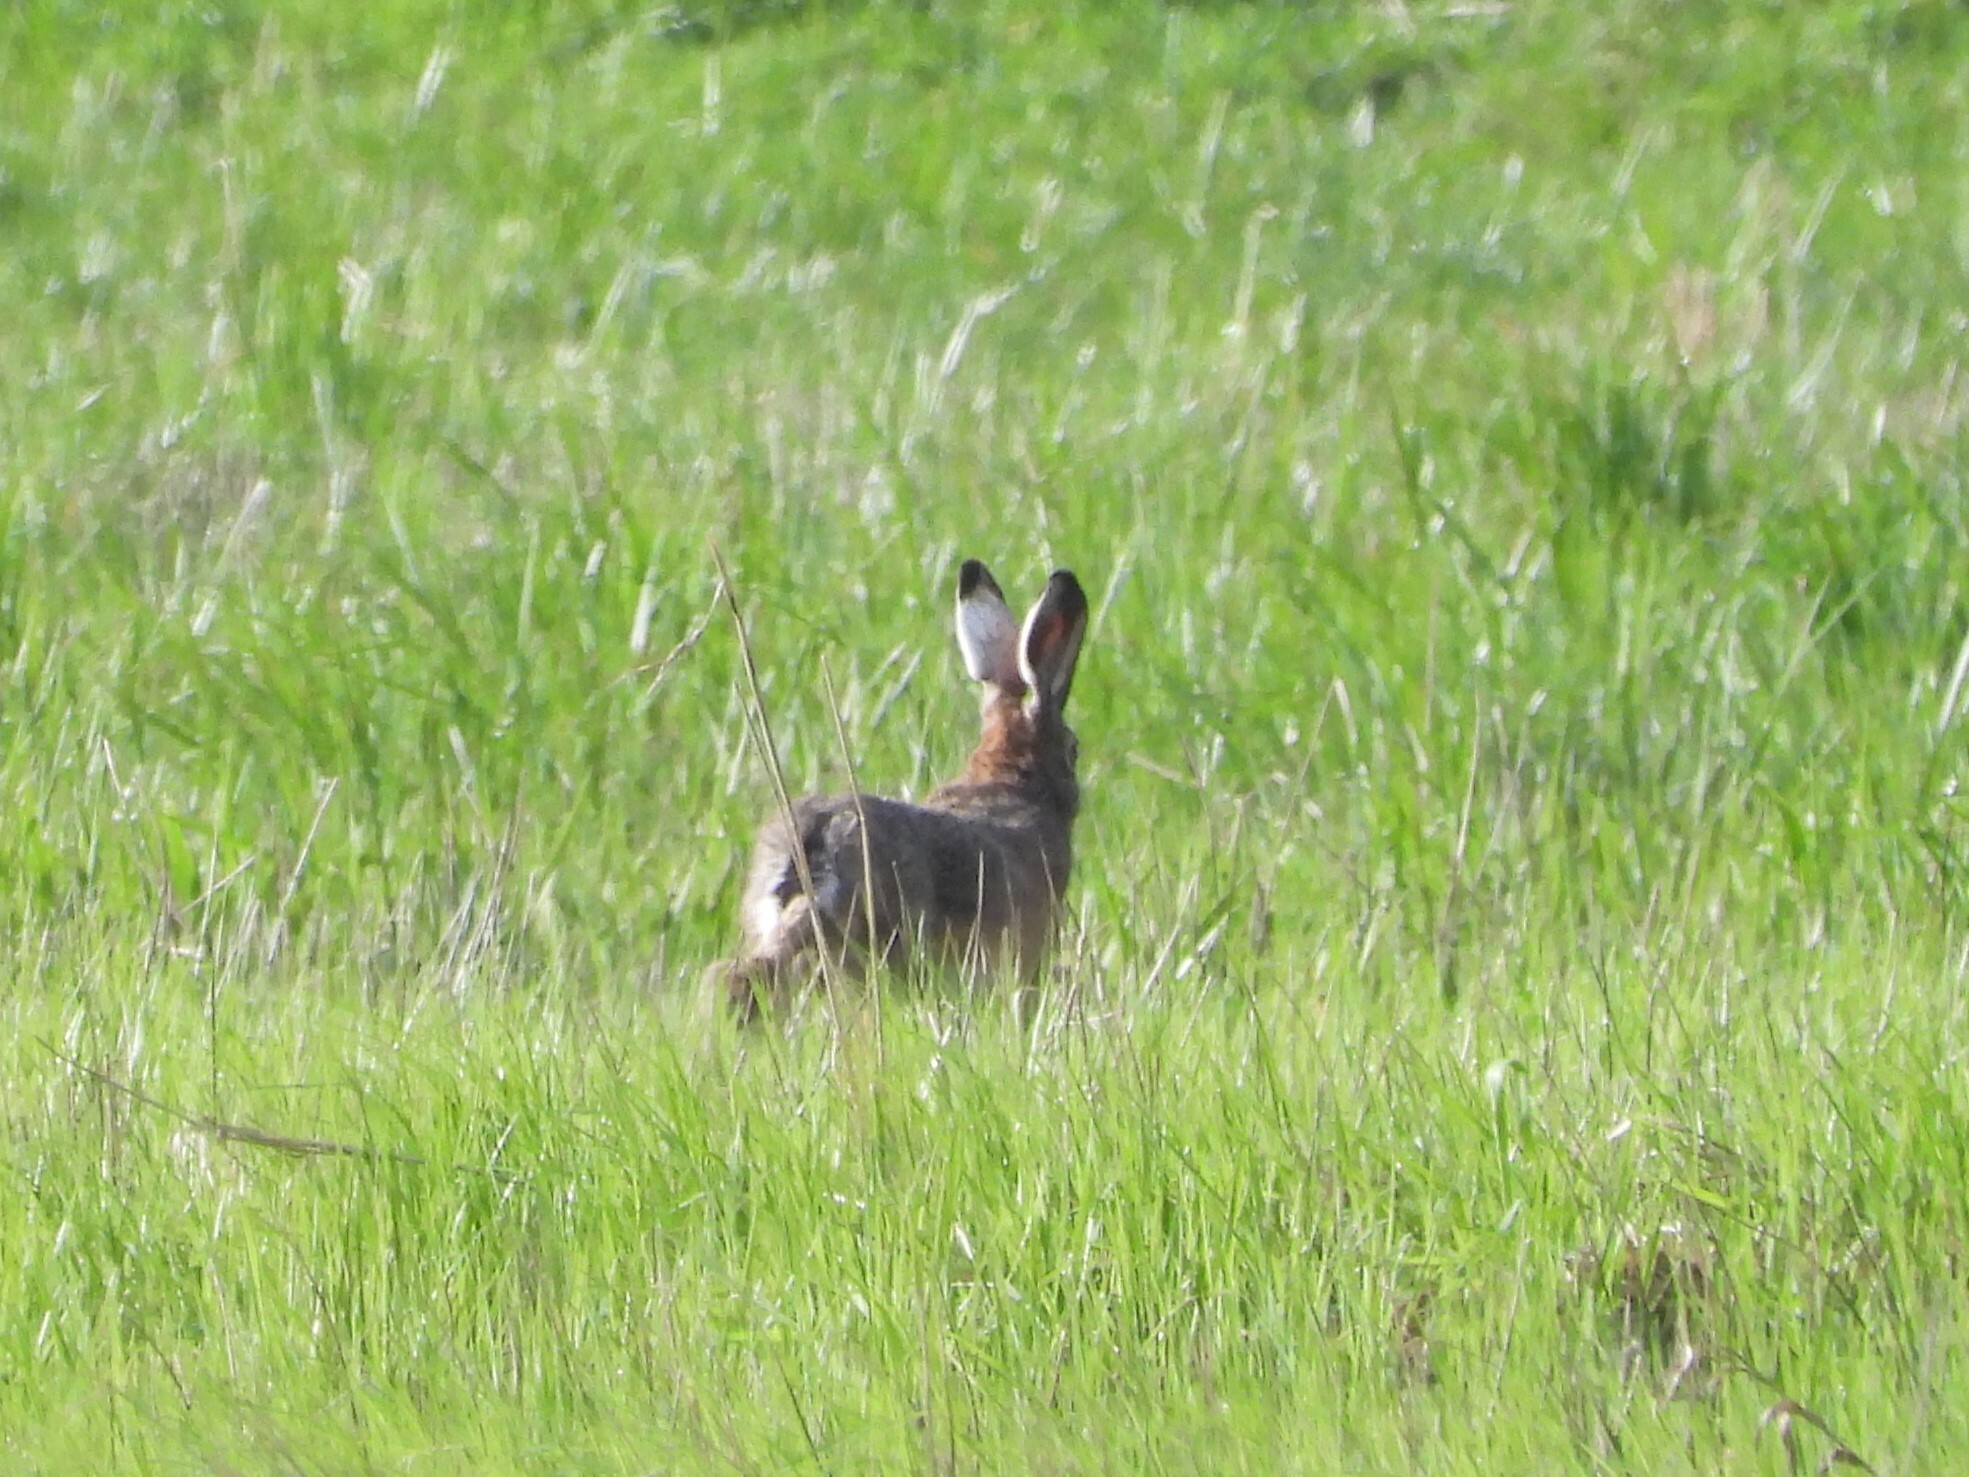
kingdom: Animalia
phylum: Chordata
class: Mammalia
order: Lagomorpha
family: Leporidae
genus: Lepus
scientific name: Lepus europaeus
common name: European hare
